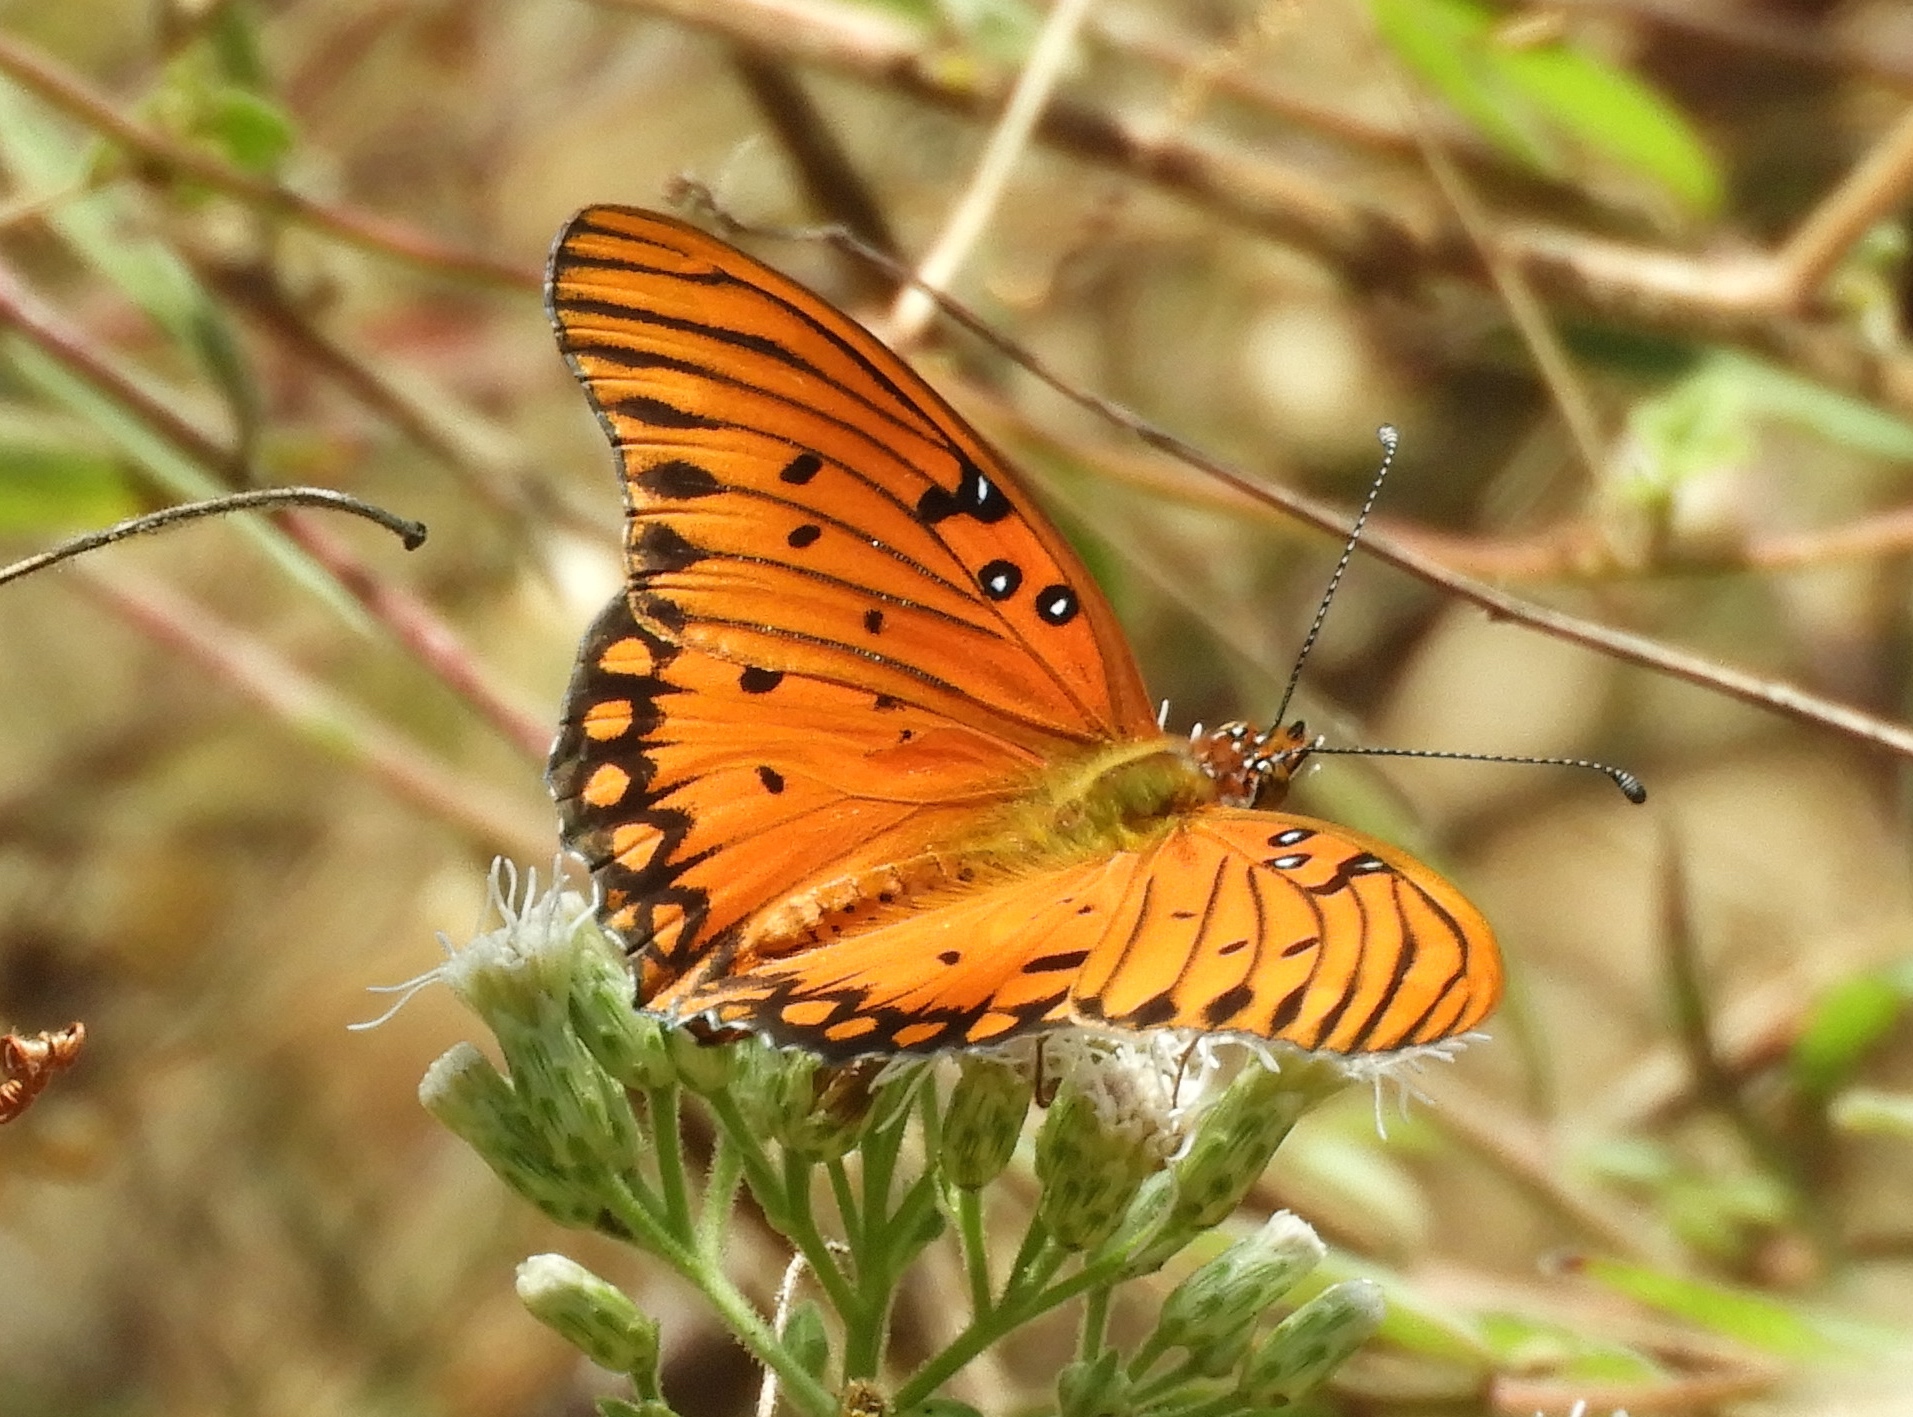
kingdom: Animalia
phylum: Arthropoda
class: Insecta
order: Lepidoptera
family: Nymphalidae
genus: Dione
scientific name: Dione vanillae
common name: Gulf fritillary
